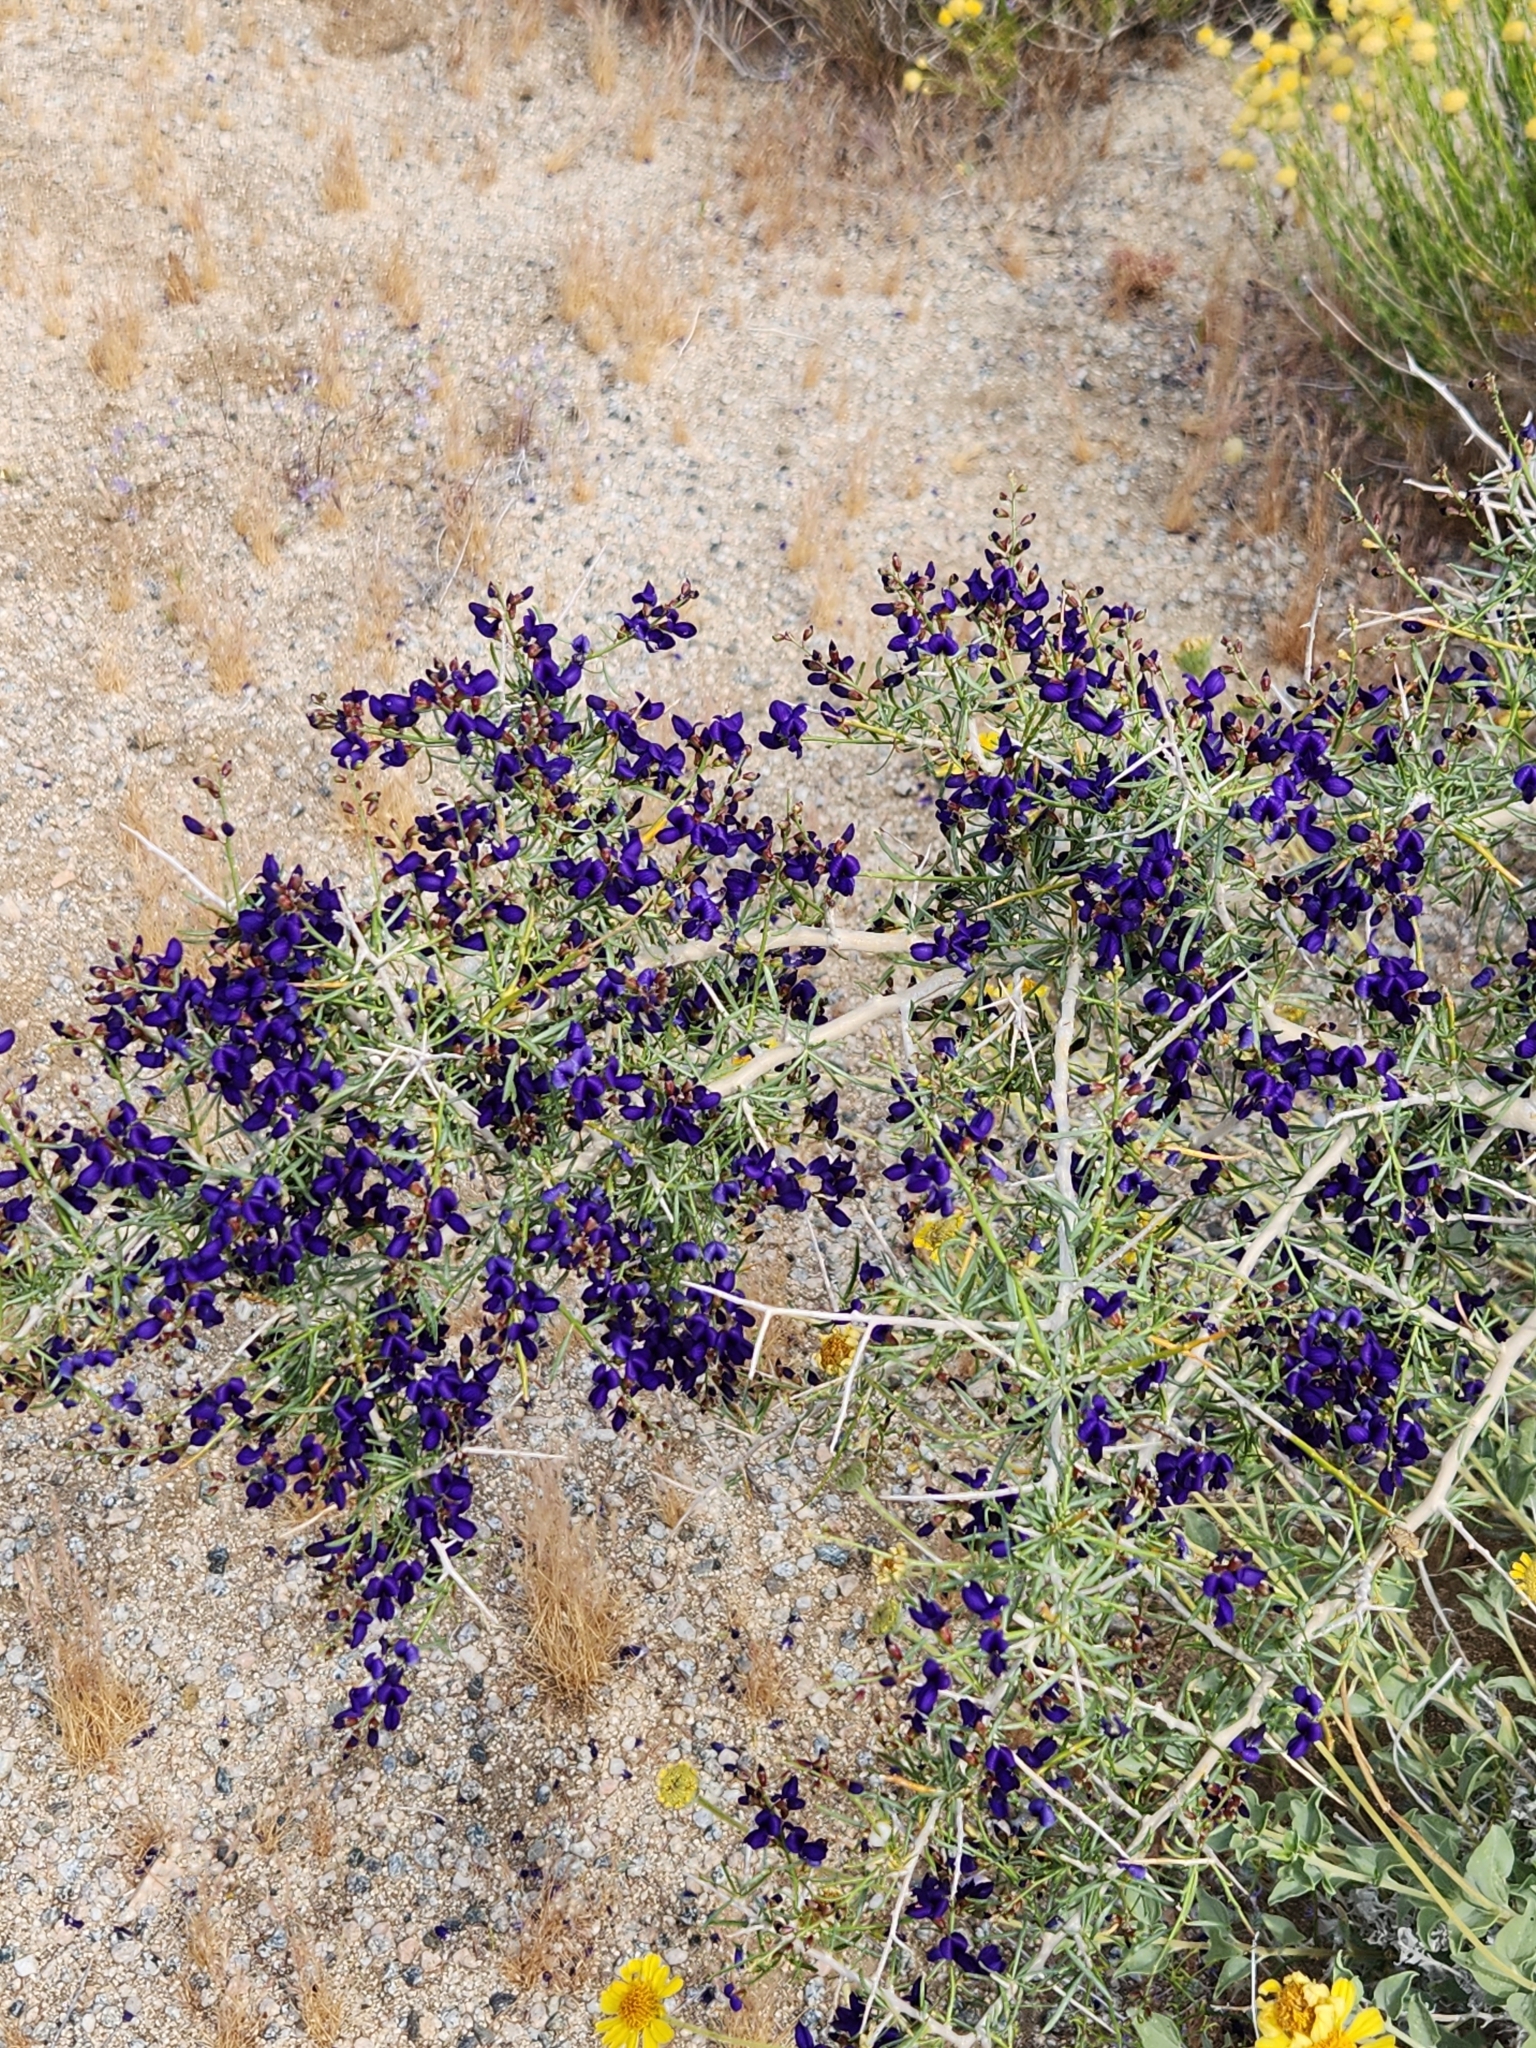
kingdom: Plantae
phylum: Tracheophyta
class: Magnoliopsida
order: Fabales
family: Fabaceae
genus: Psorothamnus
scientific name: Psorothamnus schottii
